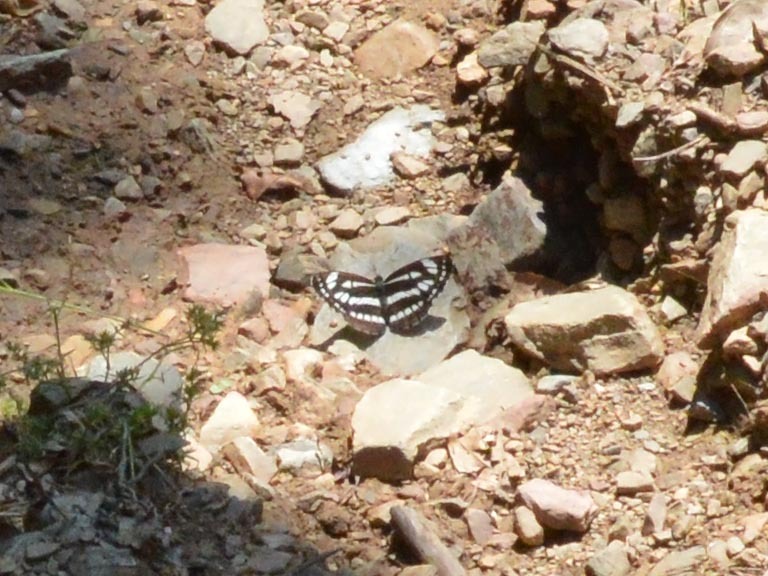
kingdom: Animalia
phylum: Arthropoda
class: Insecta
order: Lepidoptera
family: Nymphalidae
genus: Neptis
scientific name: Neptis sappho
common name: Common glider
